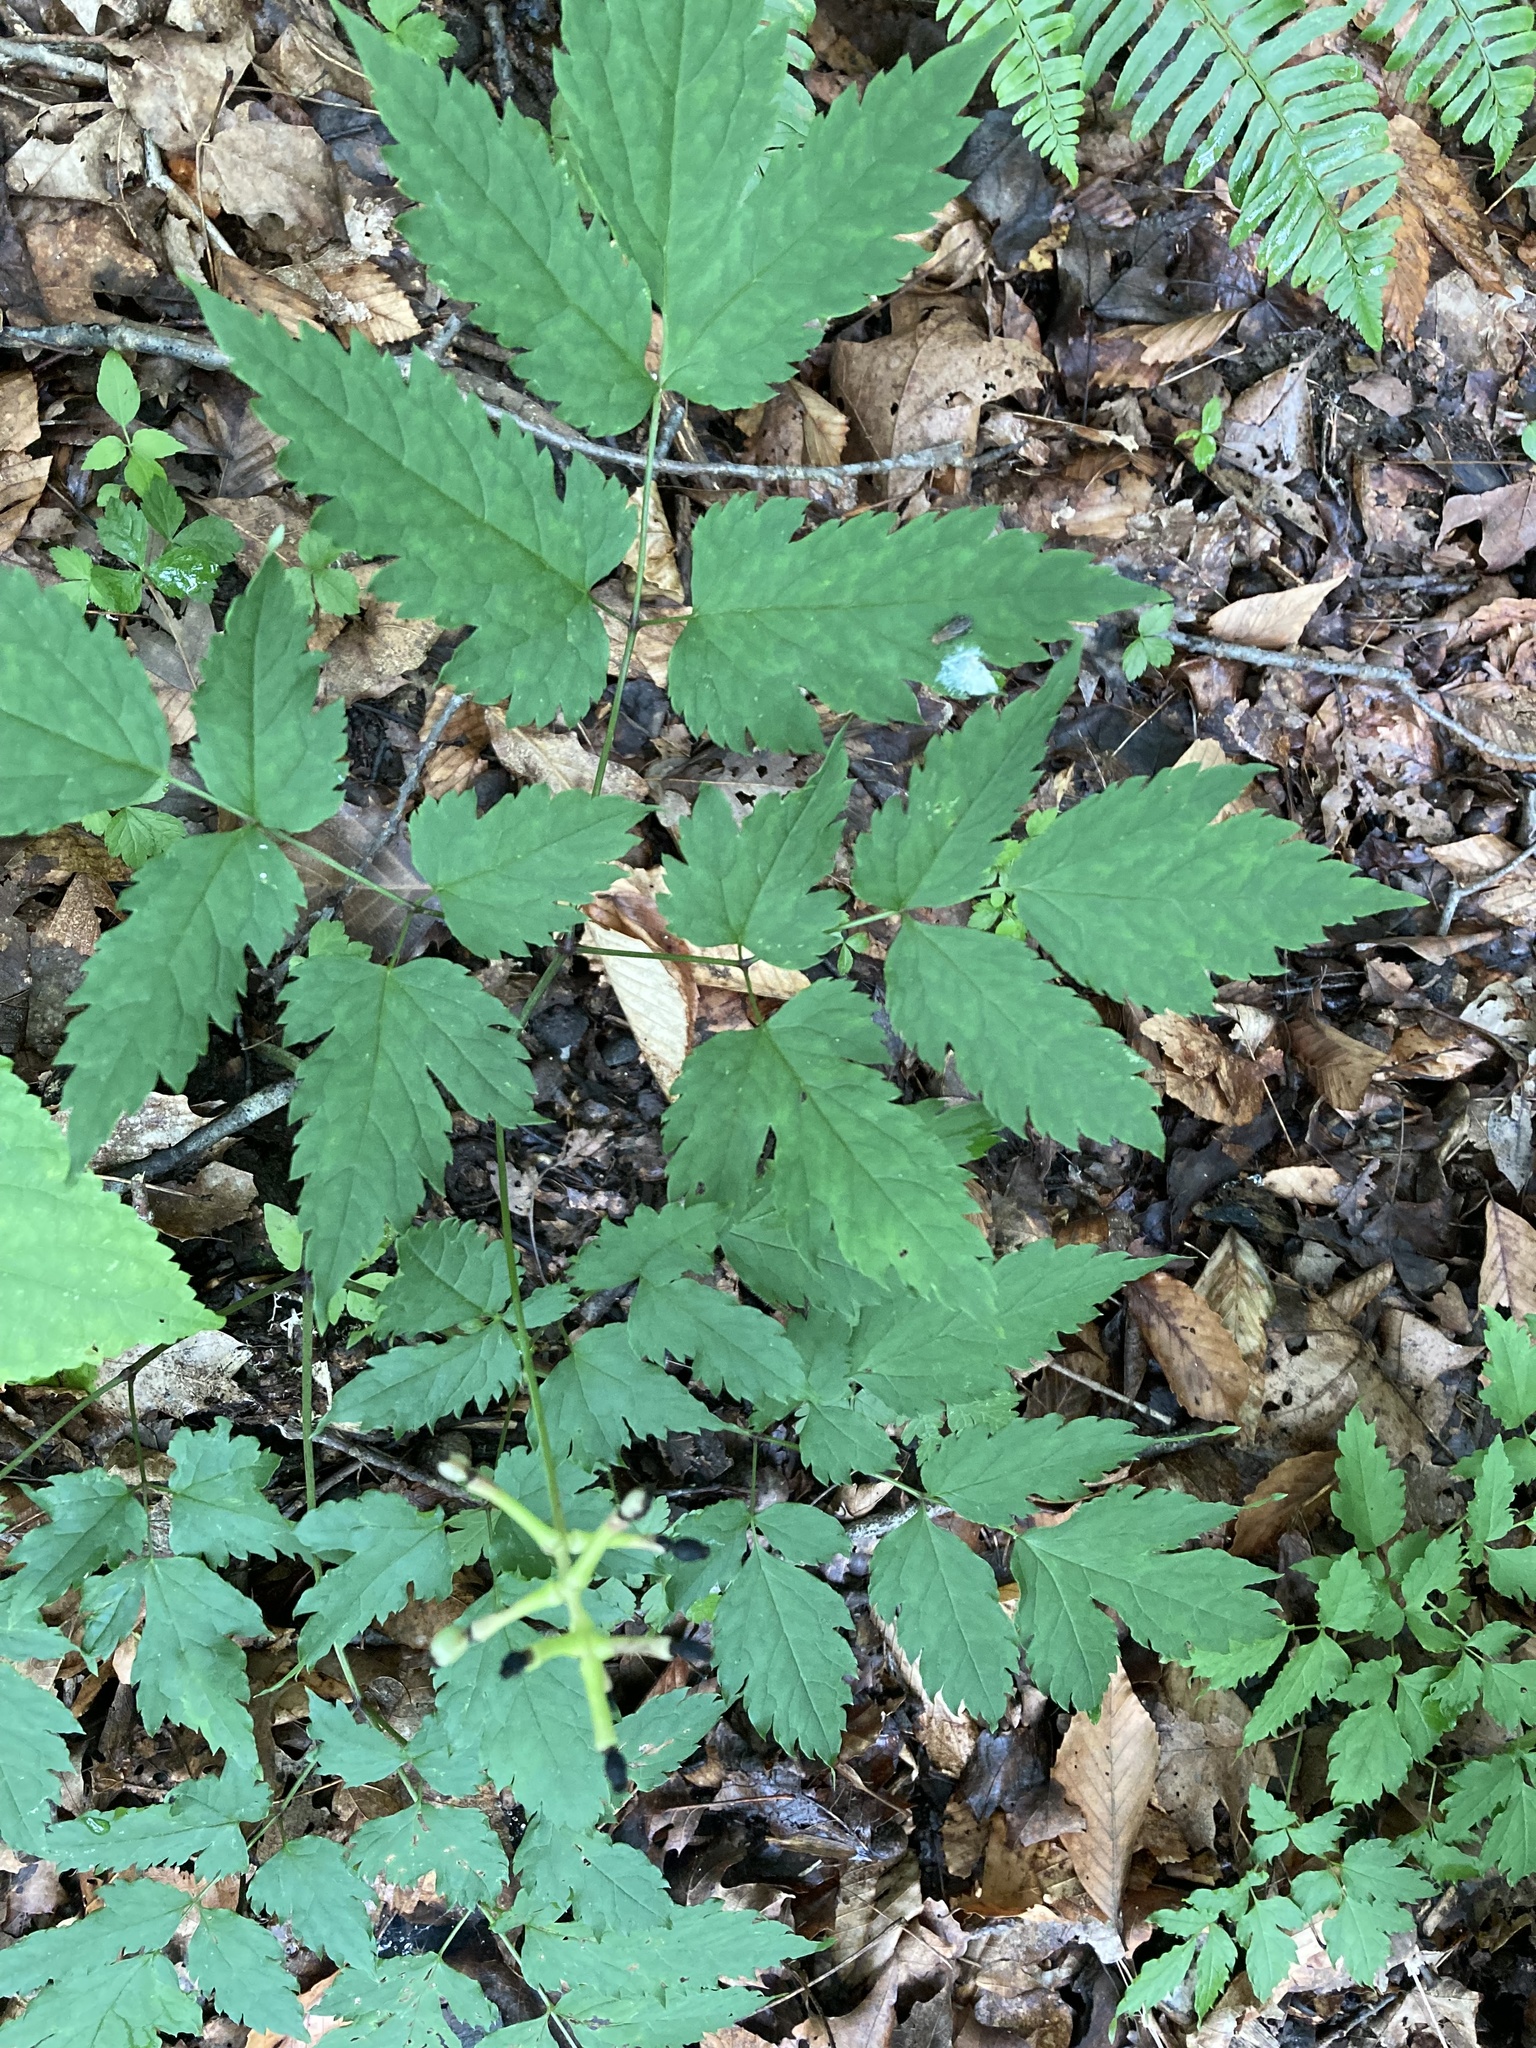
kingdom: Plantae
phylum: Tracheophyta
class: Magnoliopsida
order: Ranunculales
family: Ranunculaceae
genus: Actaea
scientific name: Actaea pachypoda
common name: Doll's-eyes
